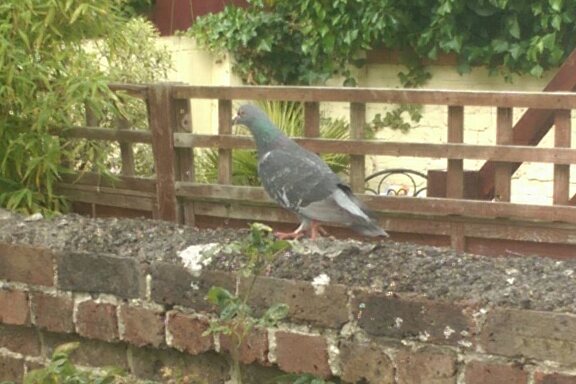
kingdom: Animalia
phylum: Chordata
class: Aves
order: Columbiformes
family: Columbidae
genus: Columba
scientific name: Columba livia
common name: Rock pigeon
